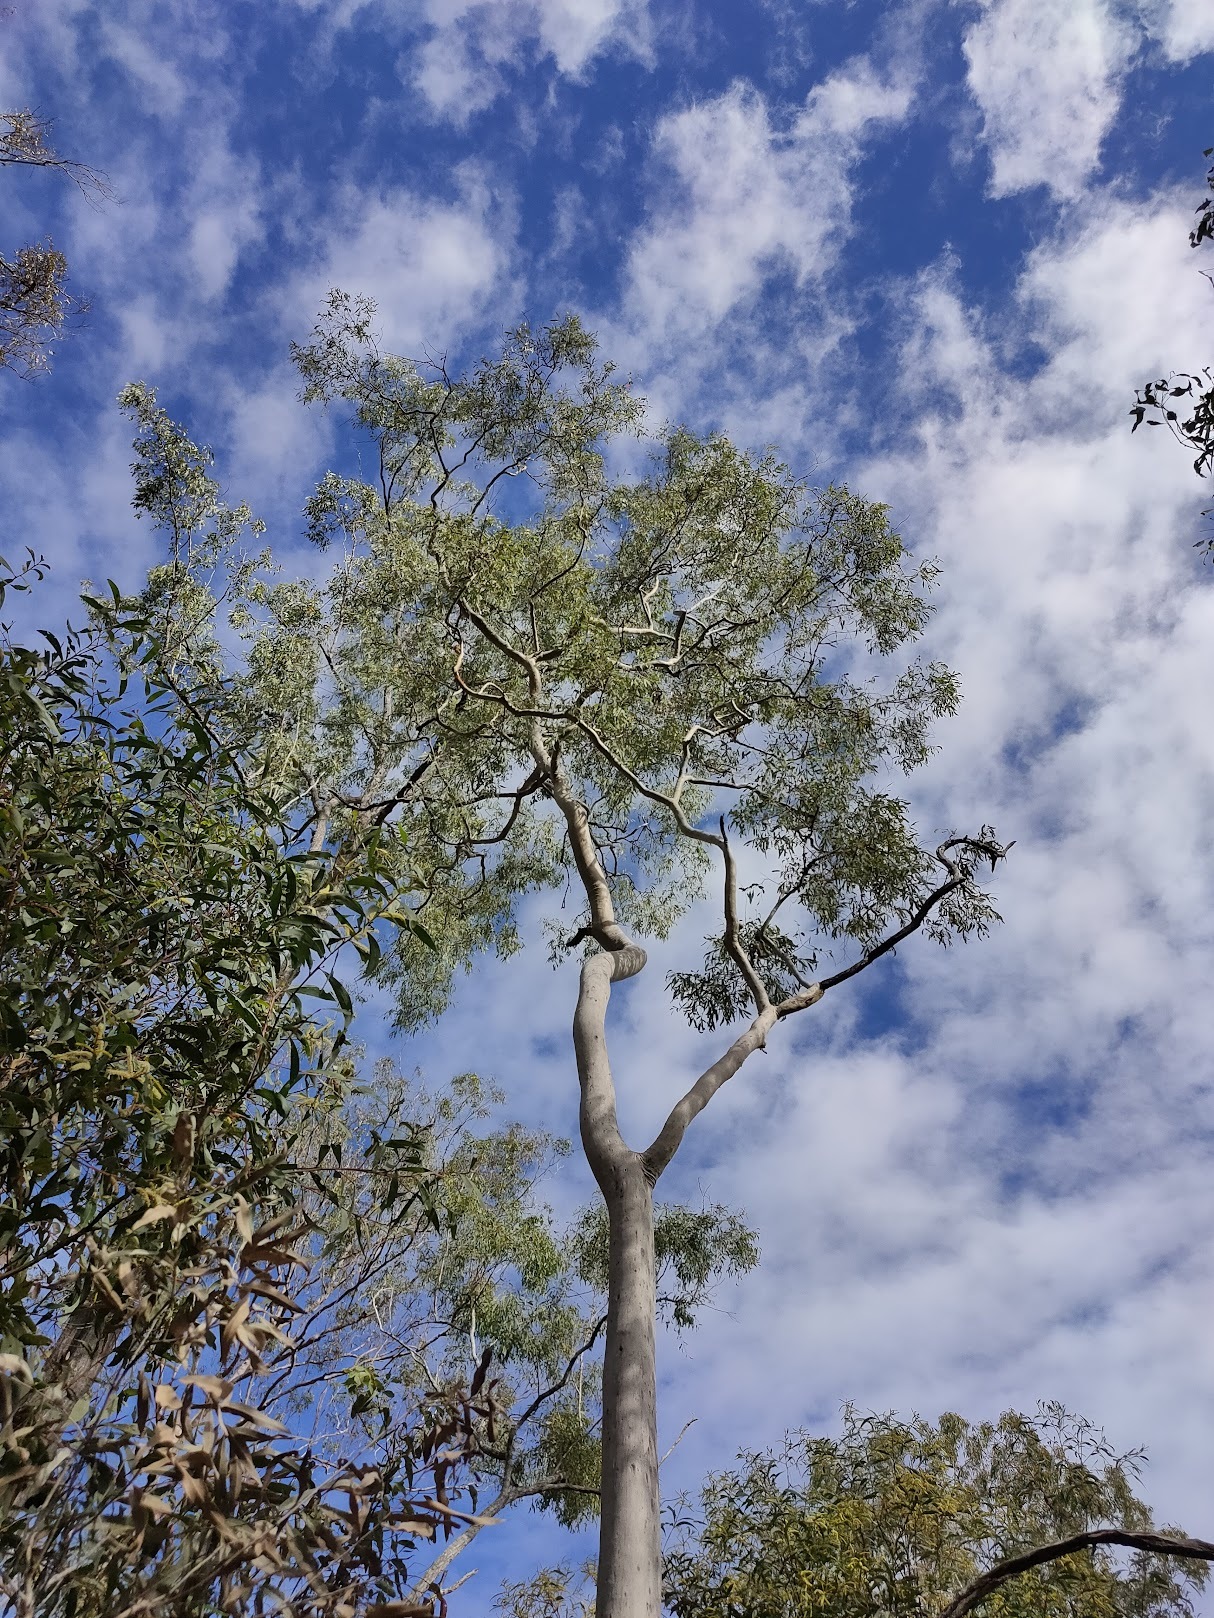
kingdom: Plantae
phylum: Tracheophyta
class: Magnoliopsida
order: Myrtales
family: Myrtaceae
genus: Corymbia
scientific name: Corymbia tessellaris
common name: Carbeen
